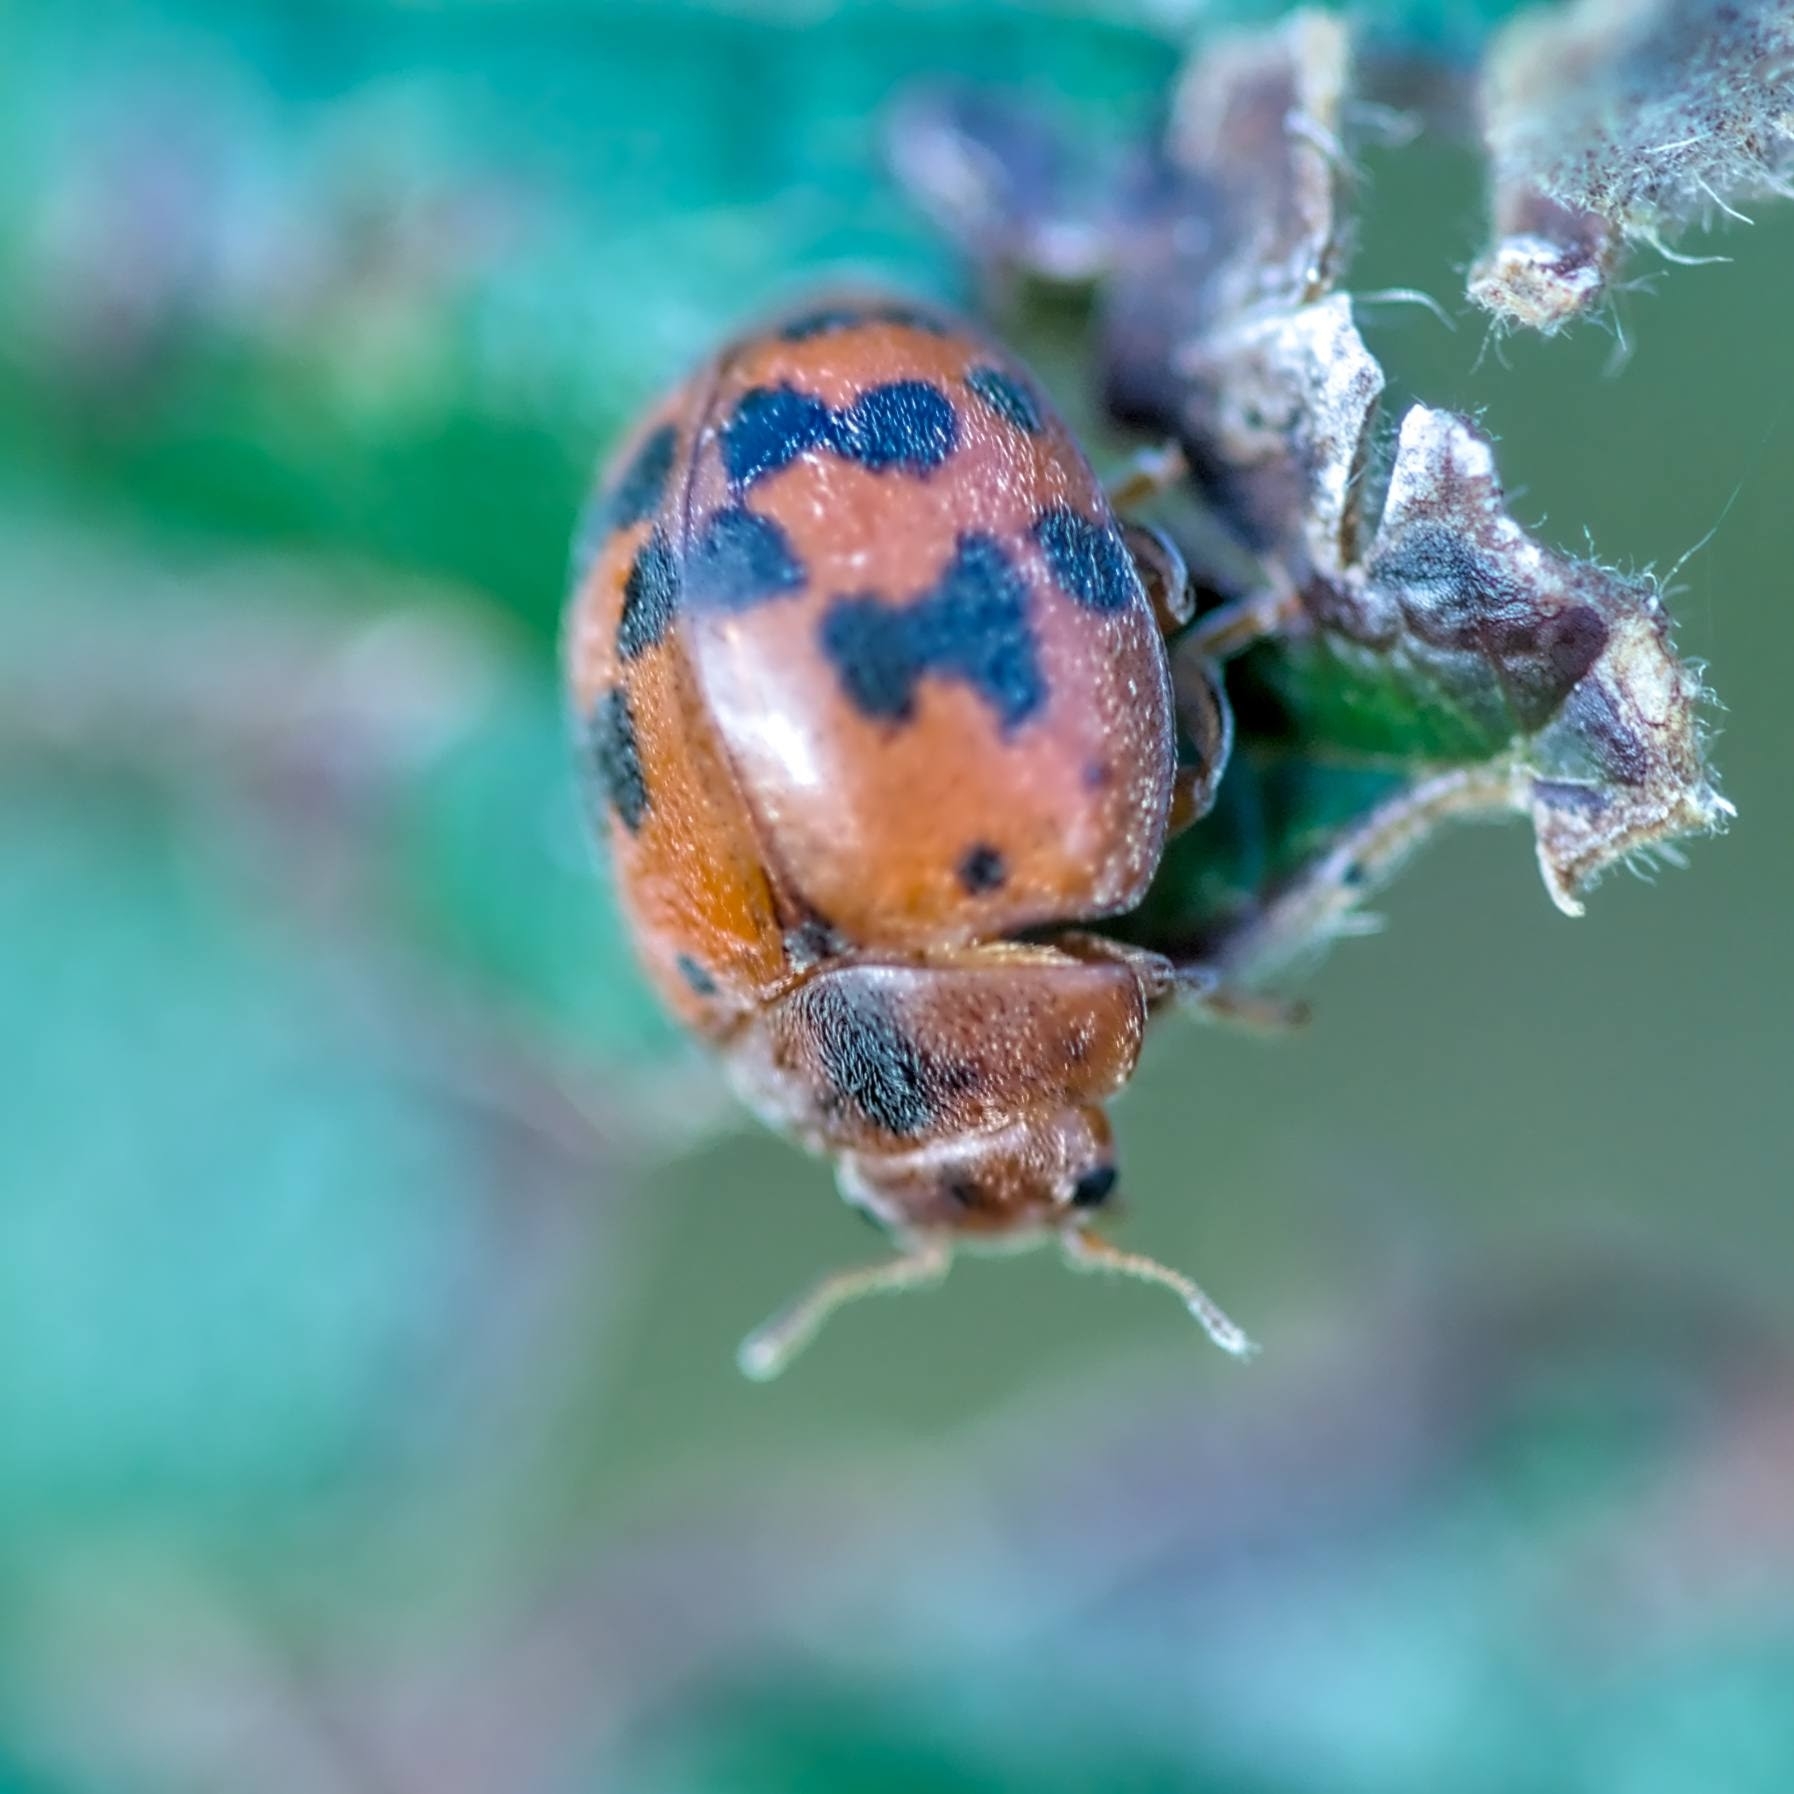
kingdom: Animalia
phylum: Arthropoda
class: Insecta
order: Coleoptera
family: Coccinellidae
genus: Subcoccinella
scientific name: Subcoccinella vigintiquatuorpunctata
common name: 24-spot ladybird
